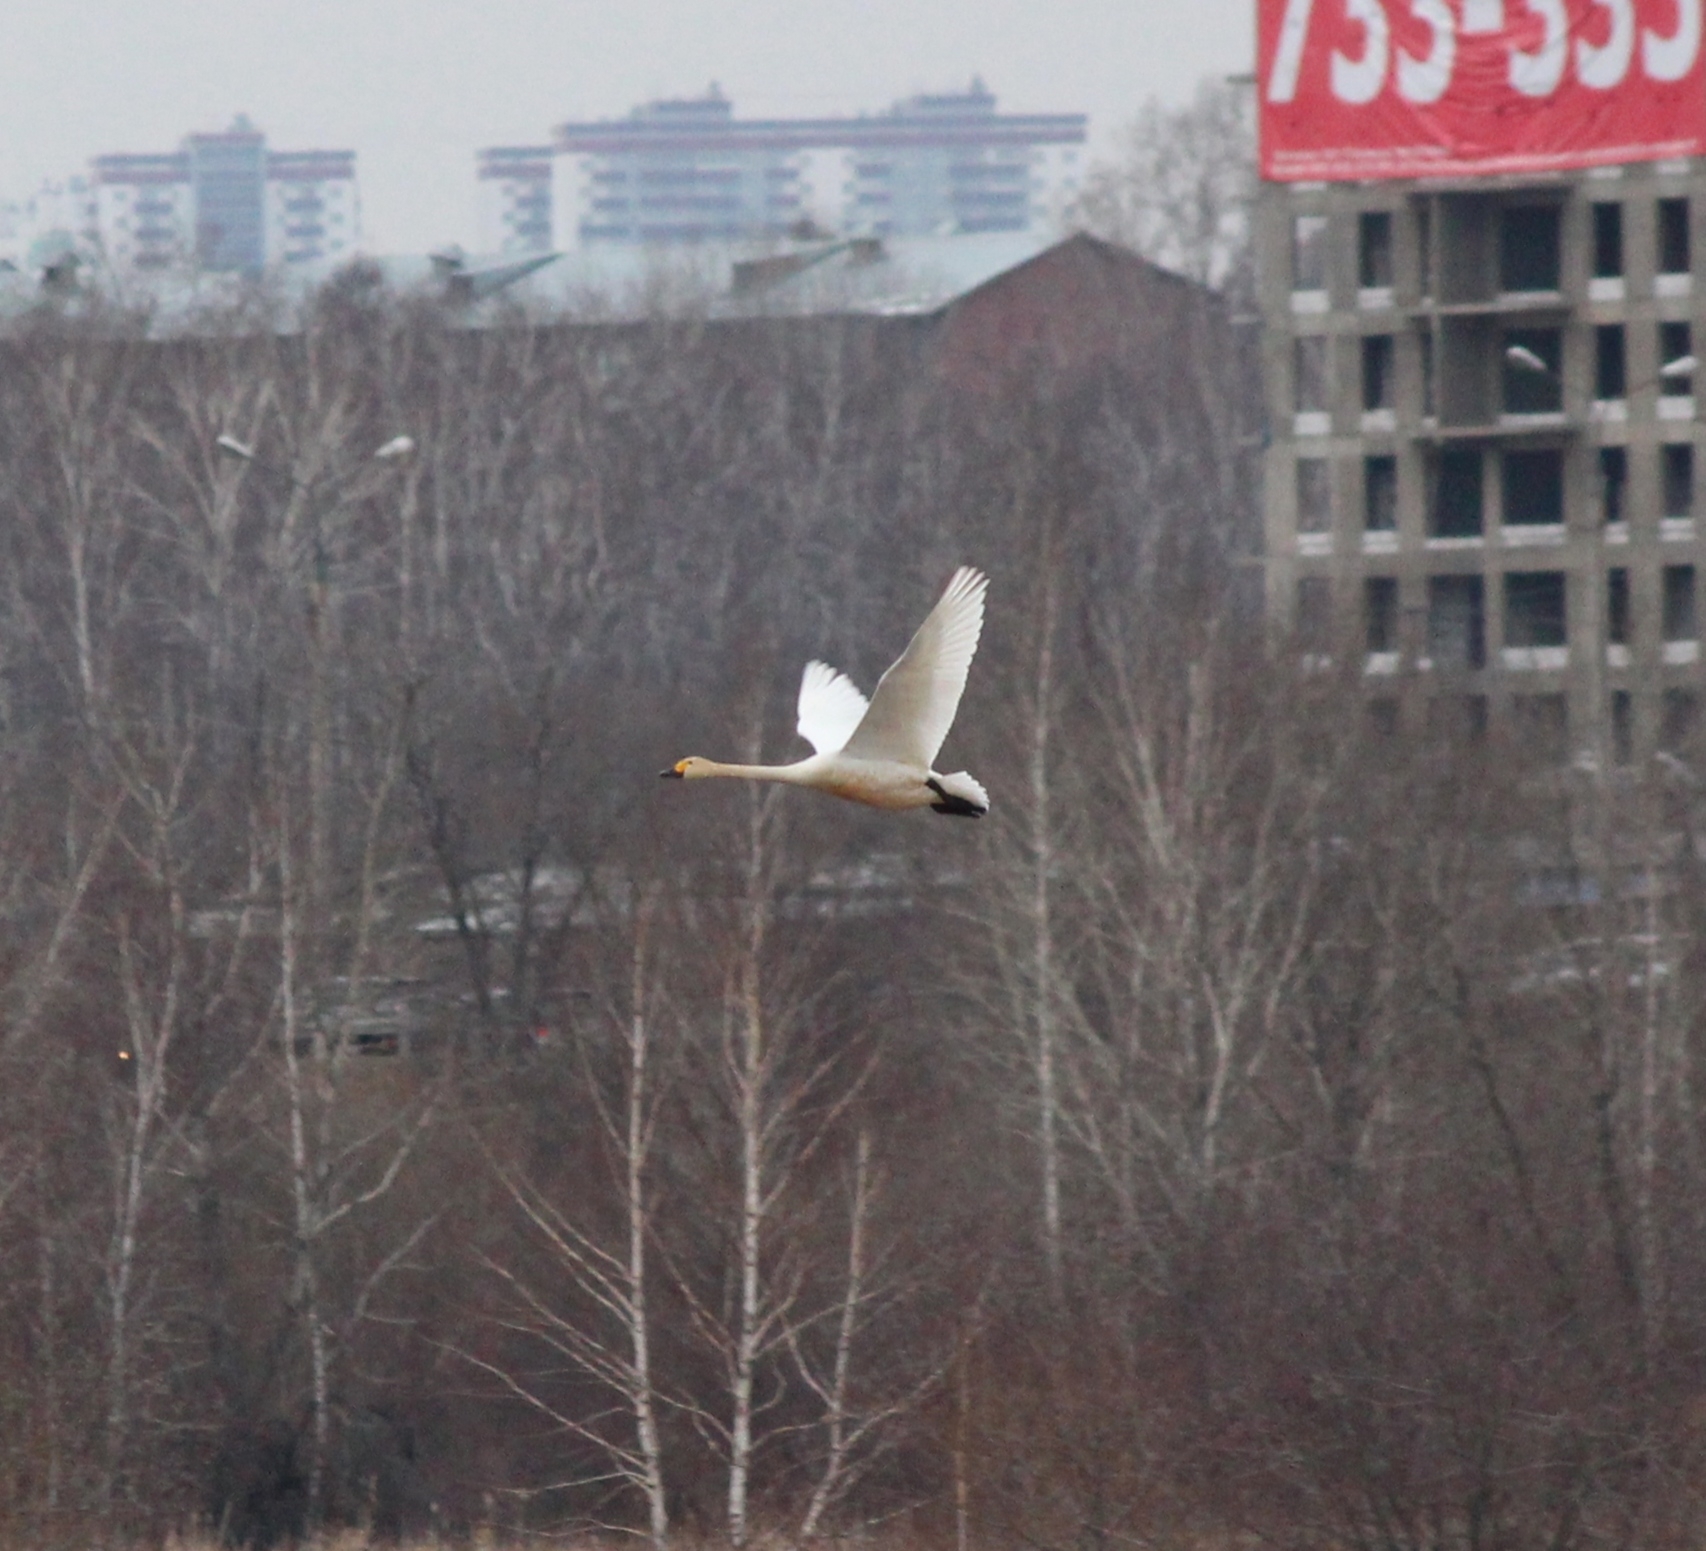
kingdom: Animalia
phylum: Chordata
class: Aves
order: Anseriformes
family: Anatidae
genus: Cygnus
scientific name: Cygnus columbianus
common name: Tundra swan
